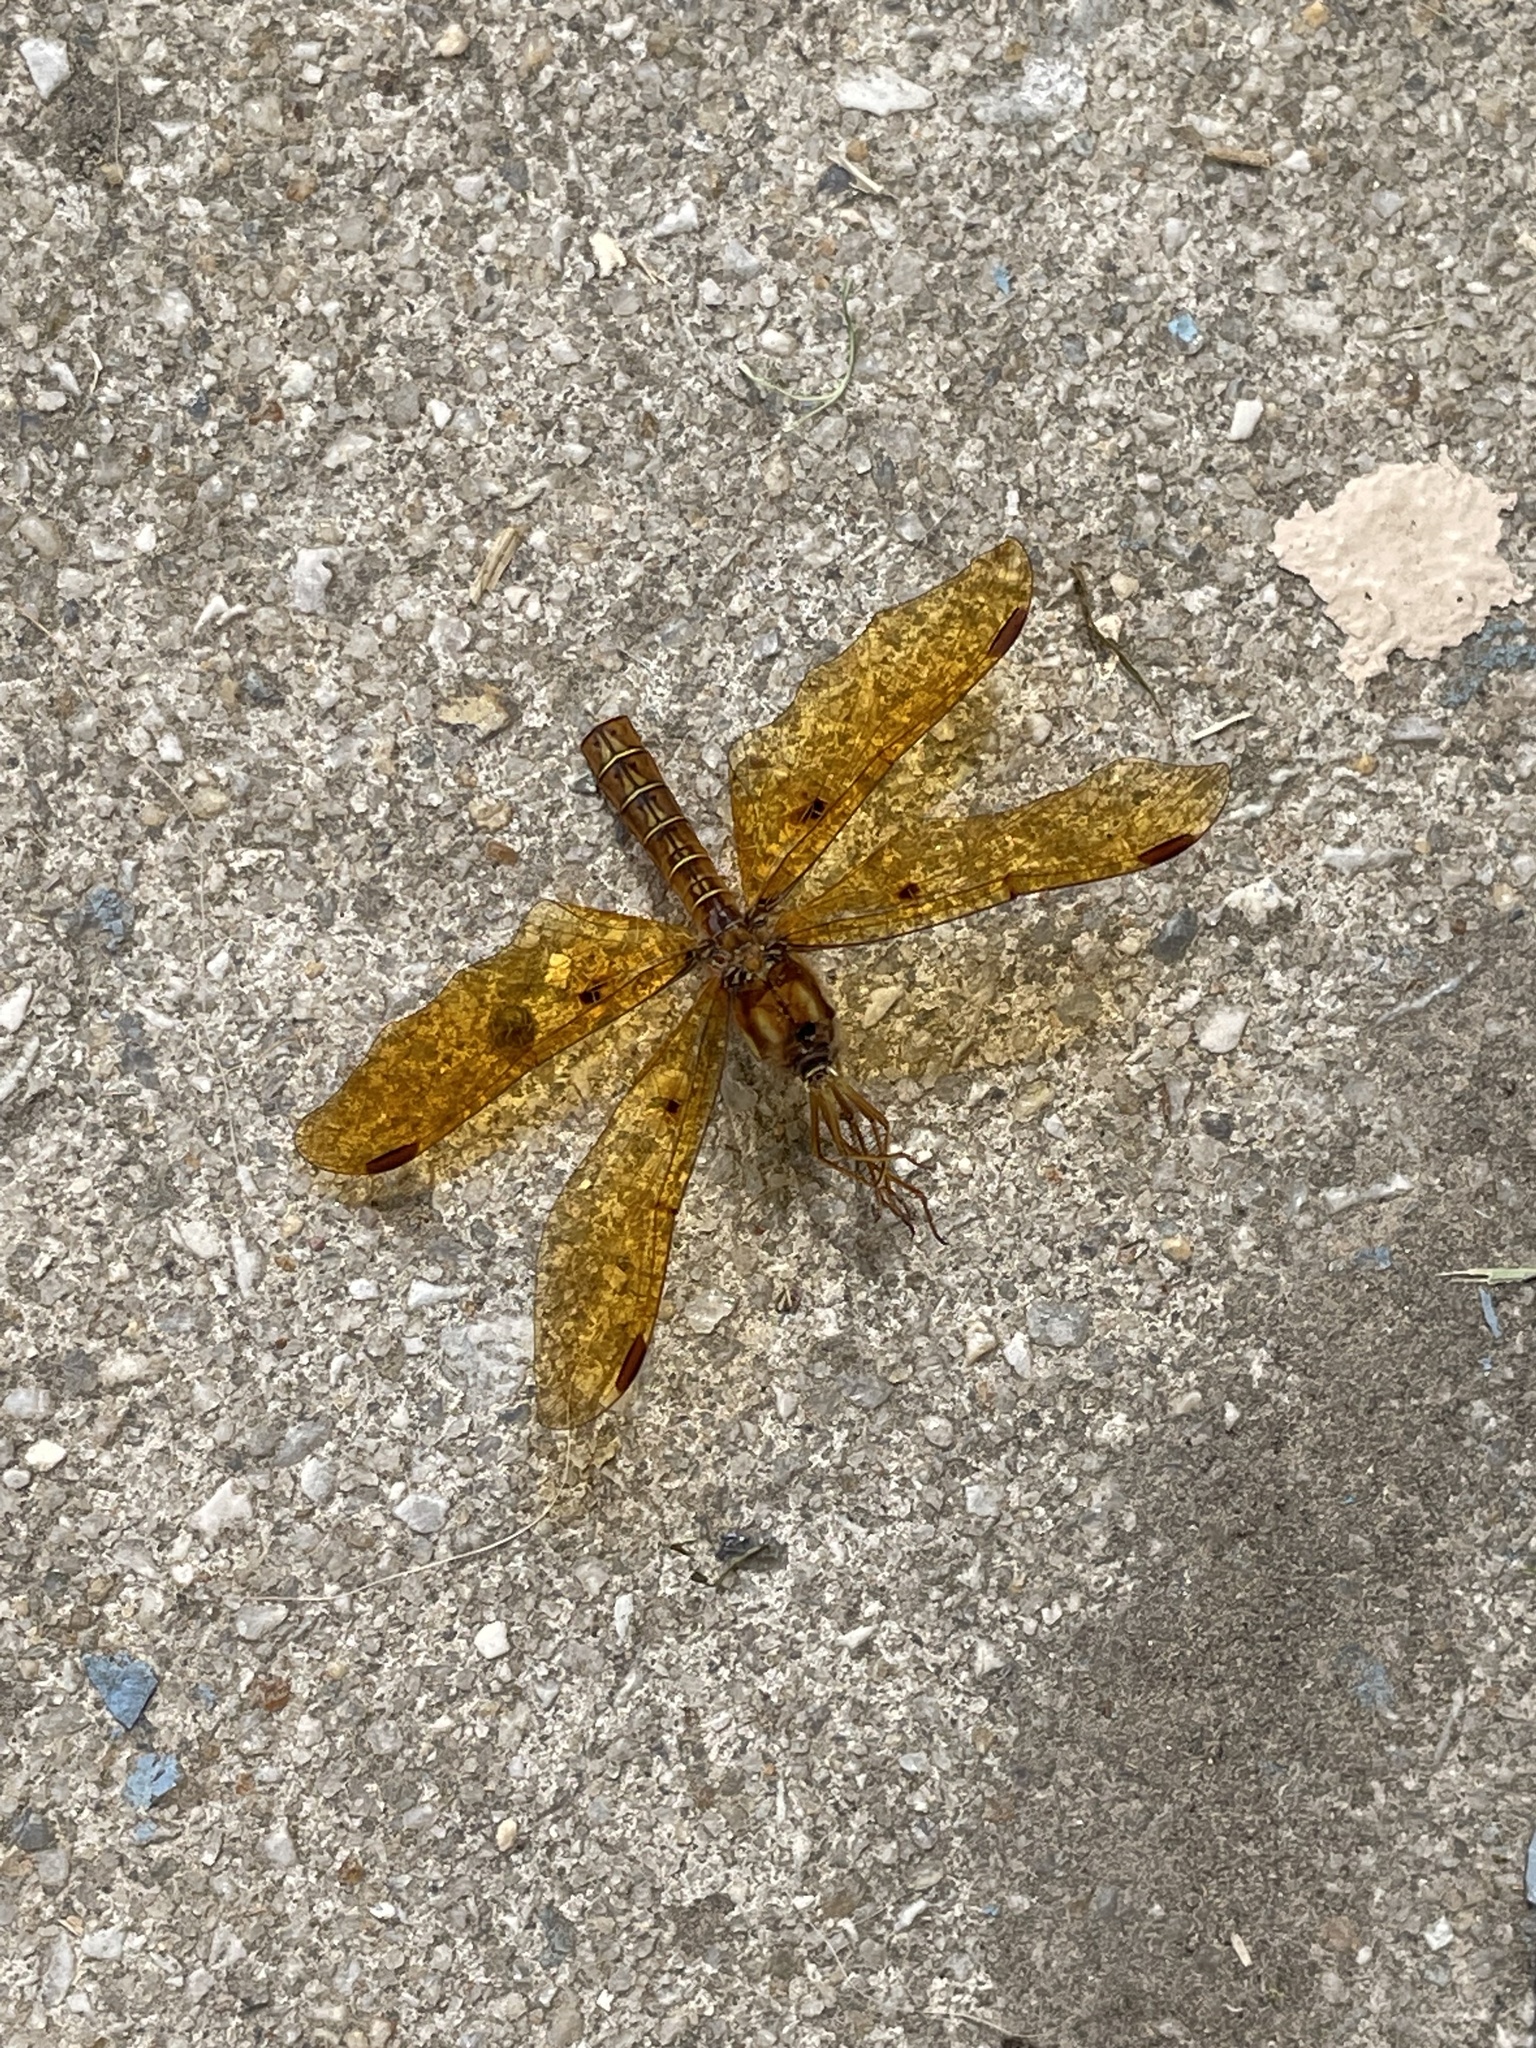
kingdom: Animalia
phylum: Arthropoda
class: Insecta
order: Odonata
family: Libellulidae
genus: Perithemis
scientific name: Perithemis tenera
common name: Eastern amberwing
